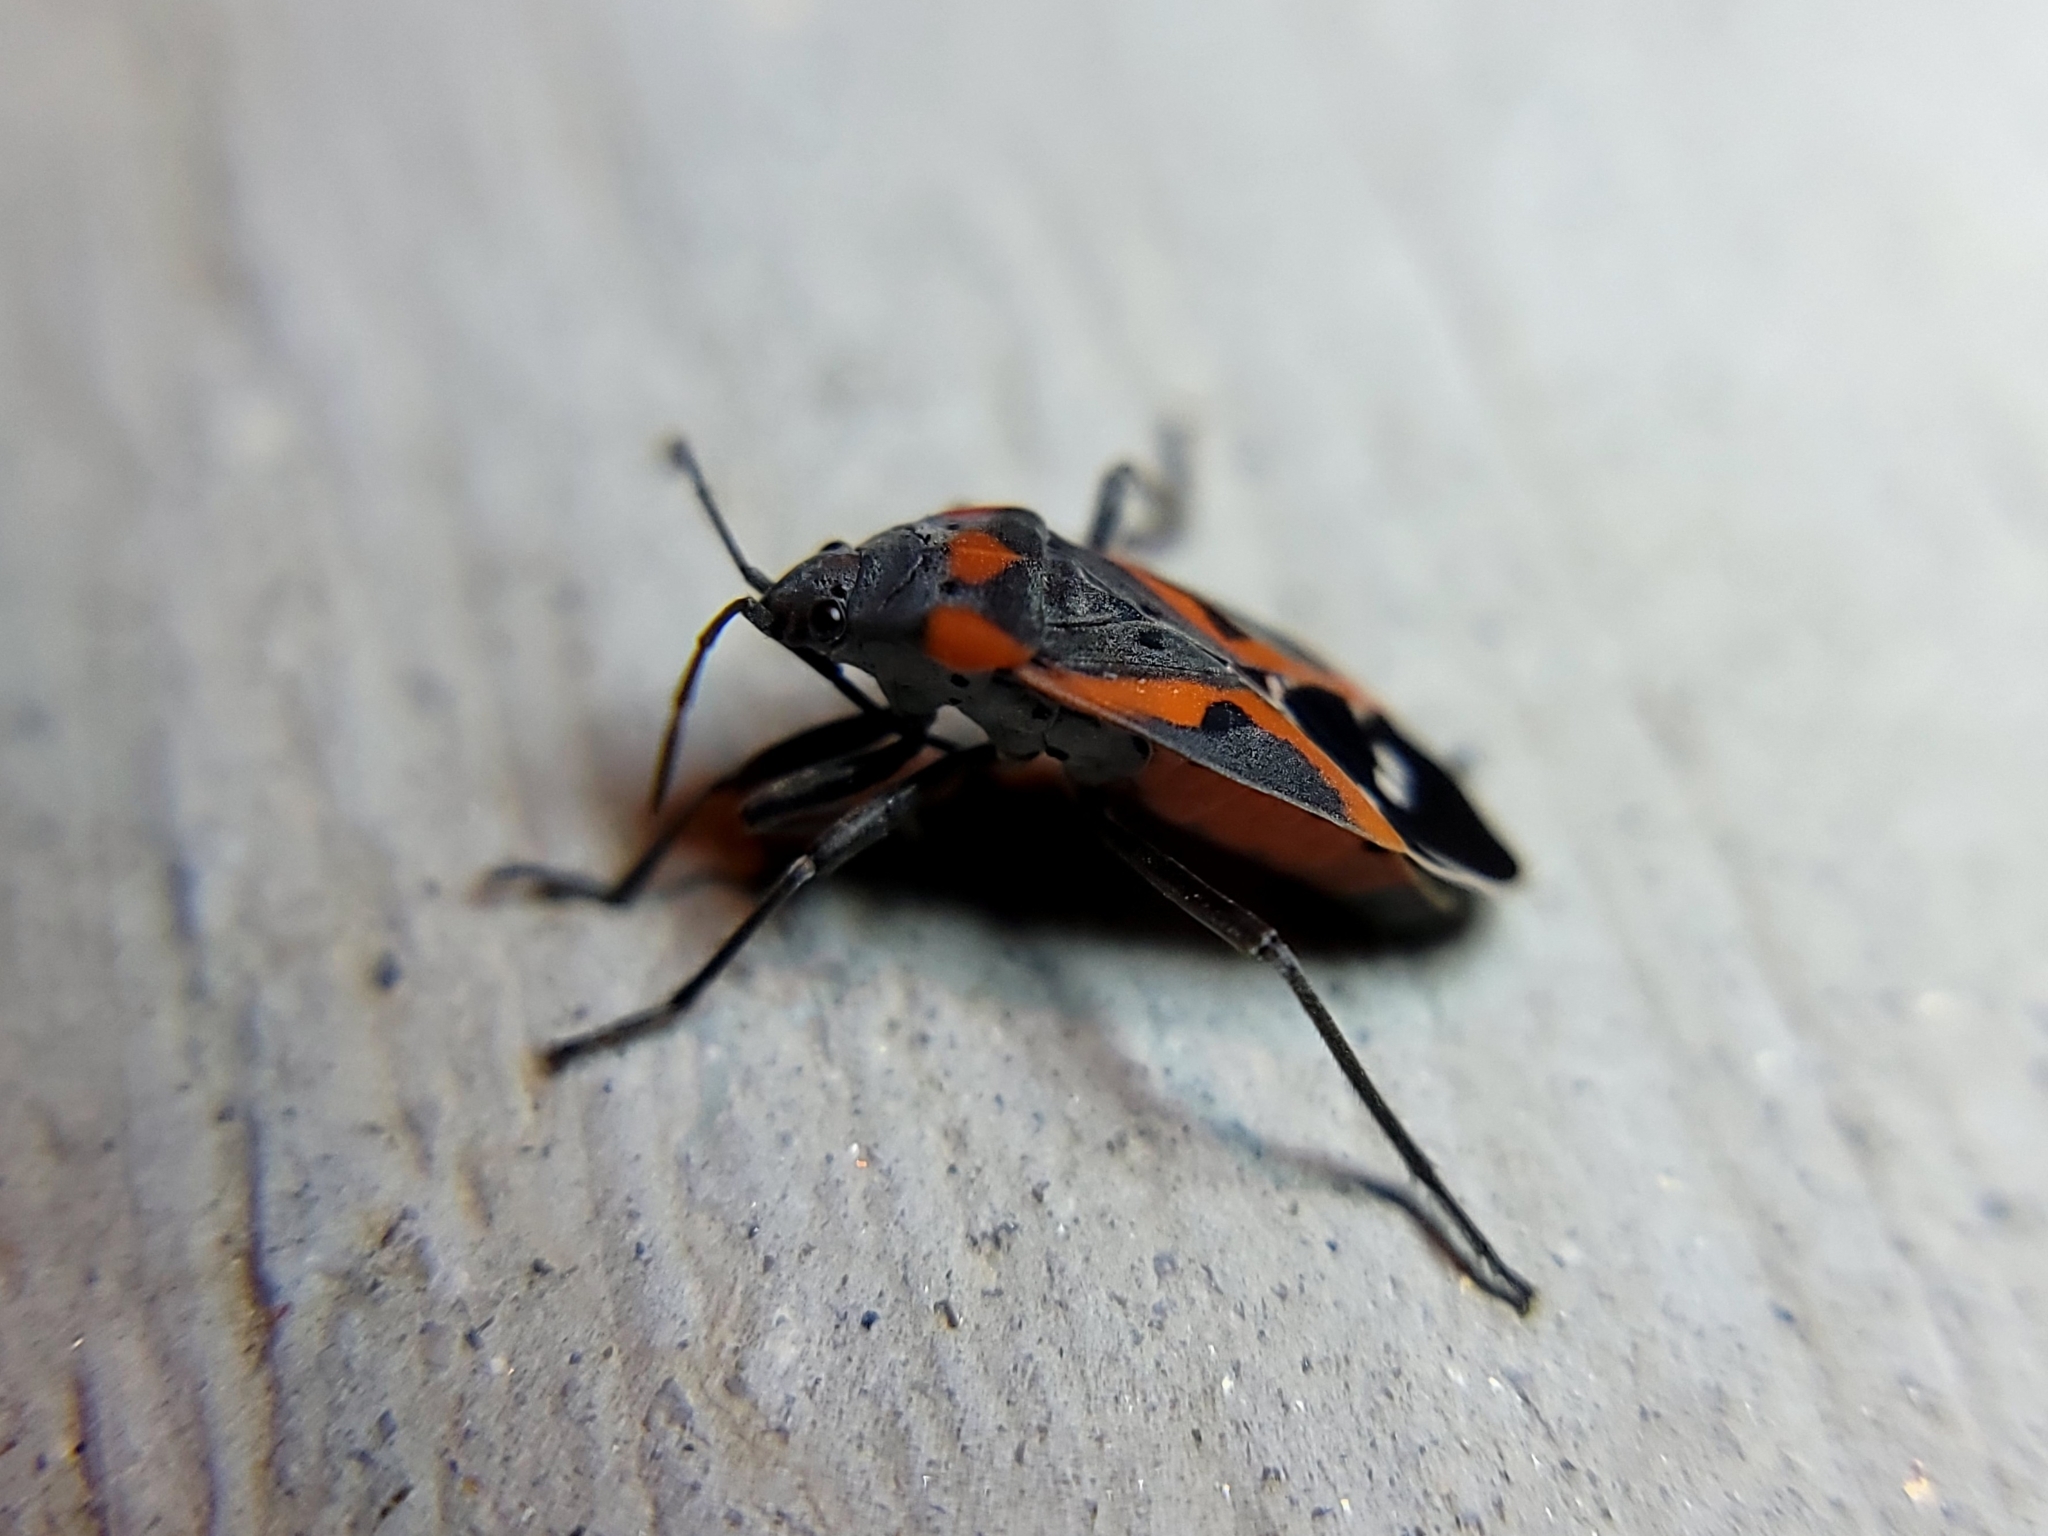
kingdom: Animalia
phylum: Arthropoda
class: Insecta
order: Hemiptera
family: Lygaeidae
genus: Lygaeus
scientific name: Lygaeus kalmii
